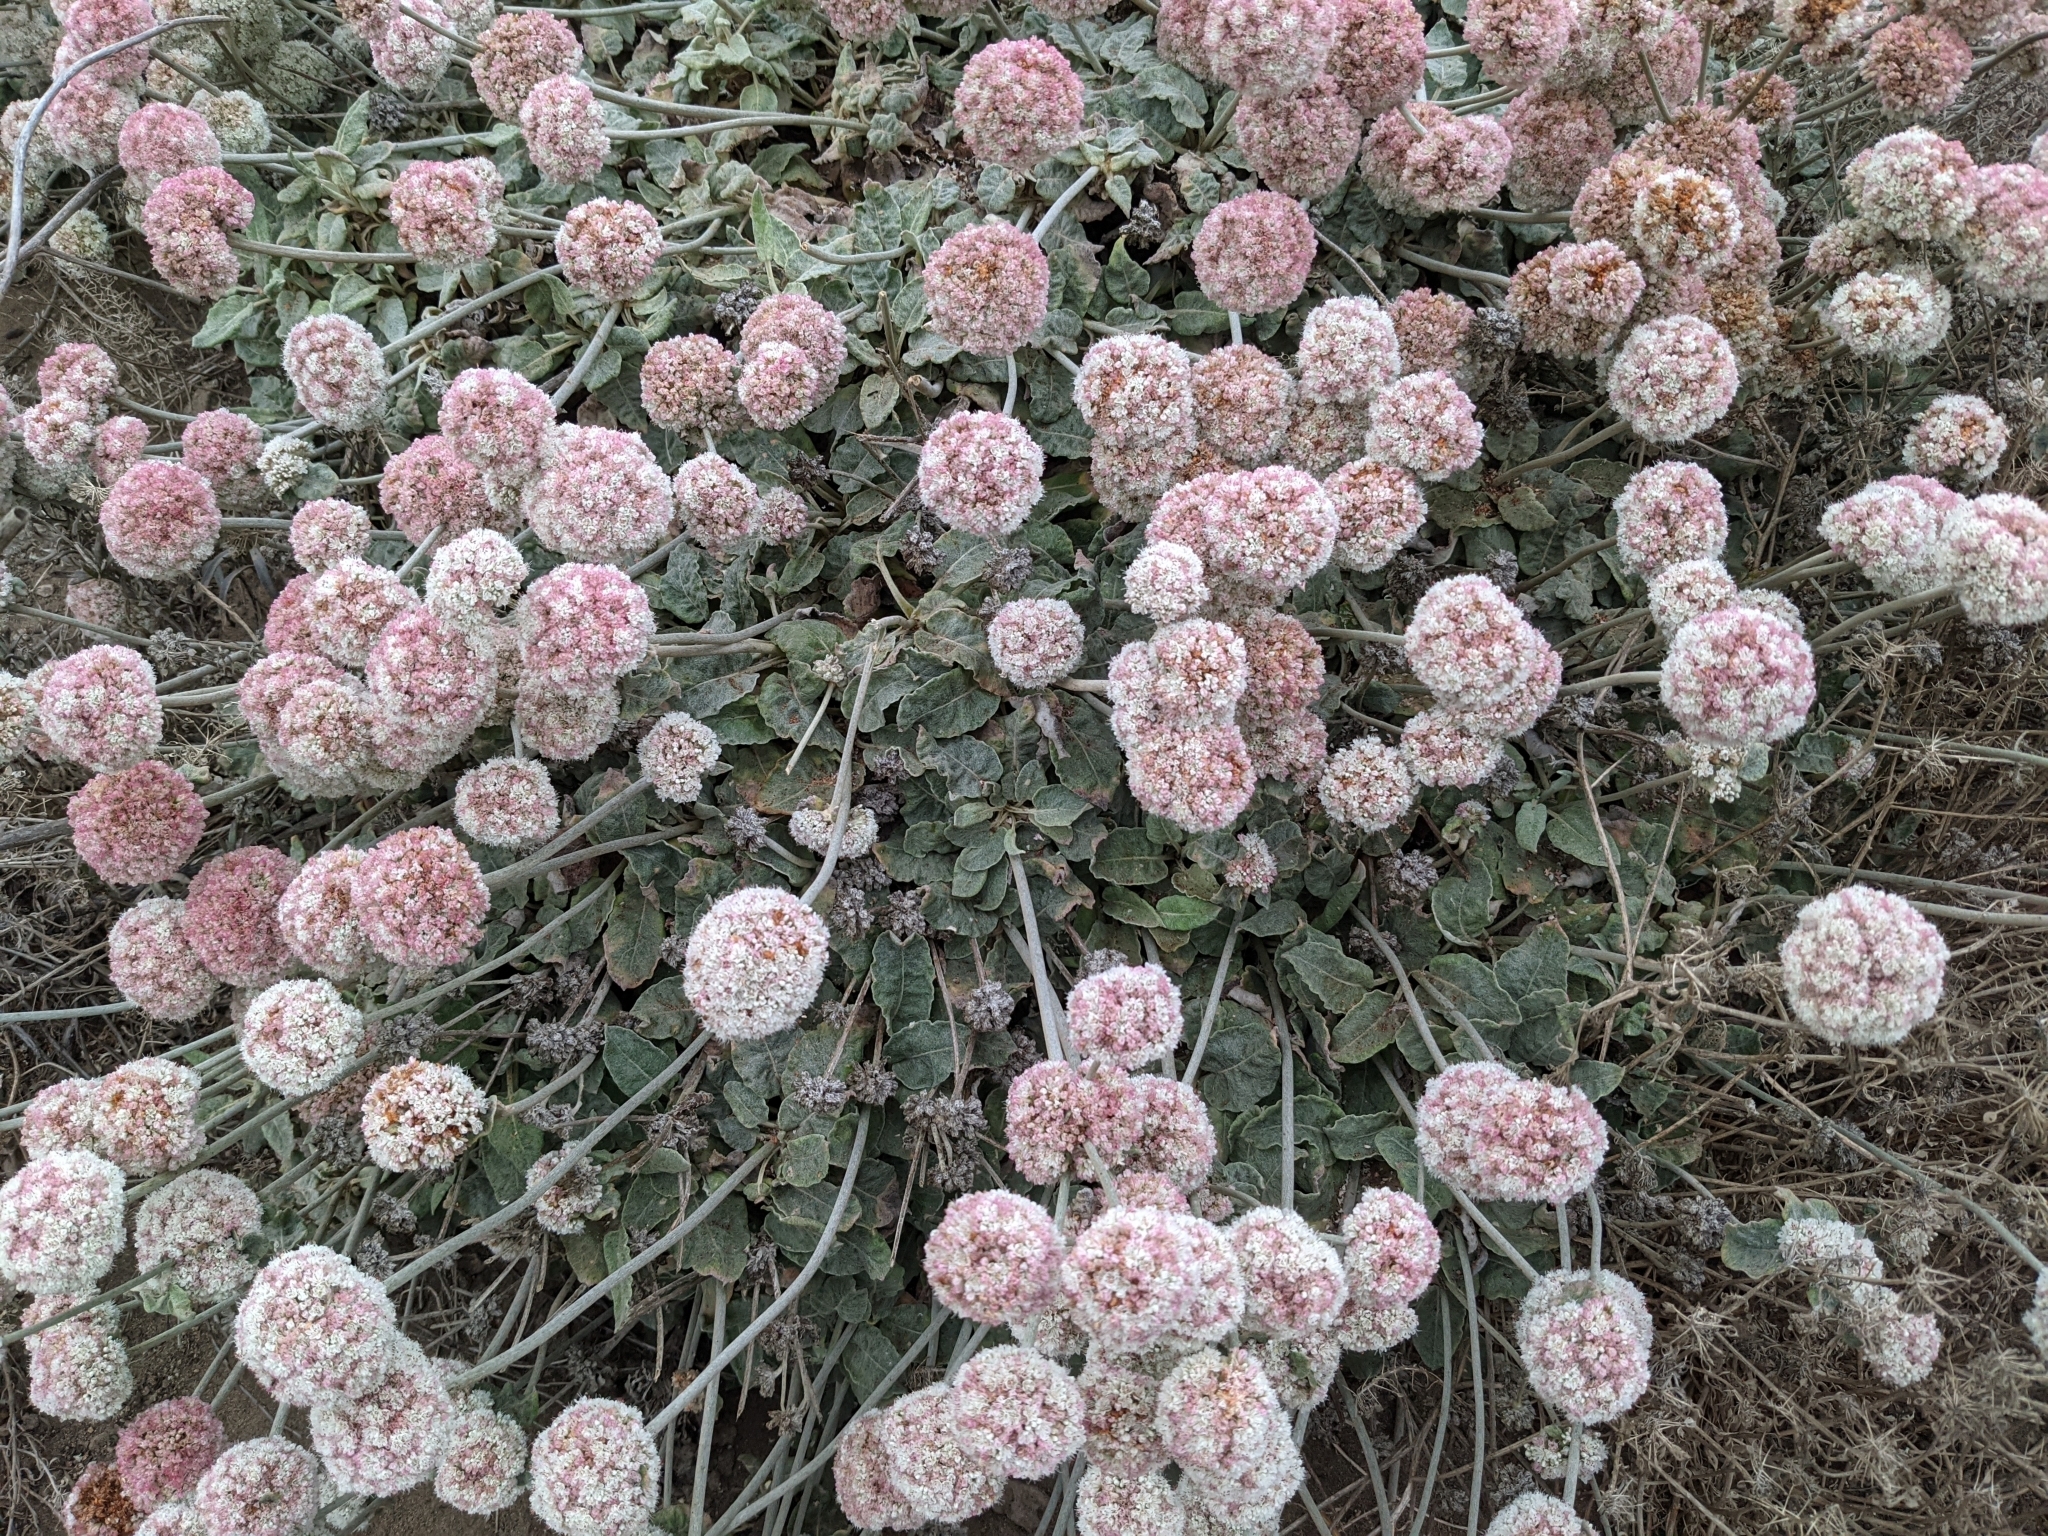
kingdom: Plantae
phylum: Tracheophyta
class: Magnoliopsida
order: Caryophyllales
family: Polygonaceae
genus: Eriogonum
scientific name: Eriogonum latifolium
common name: Seaside wild buckwheat
